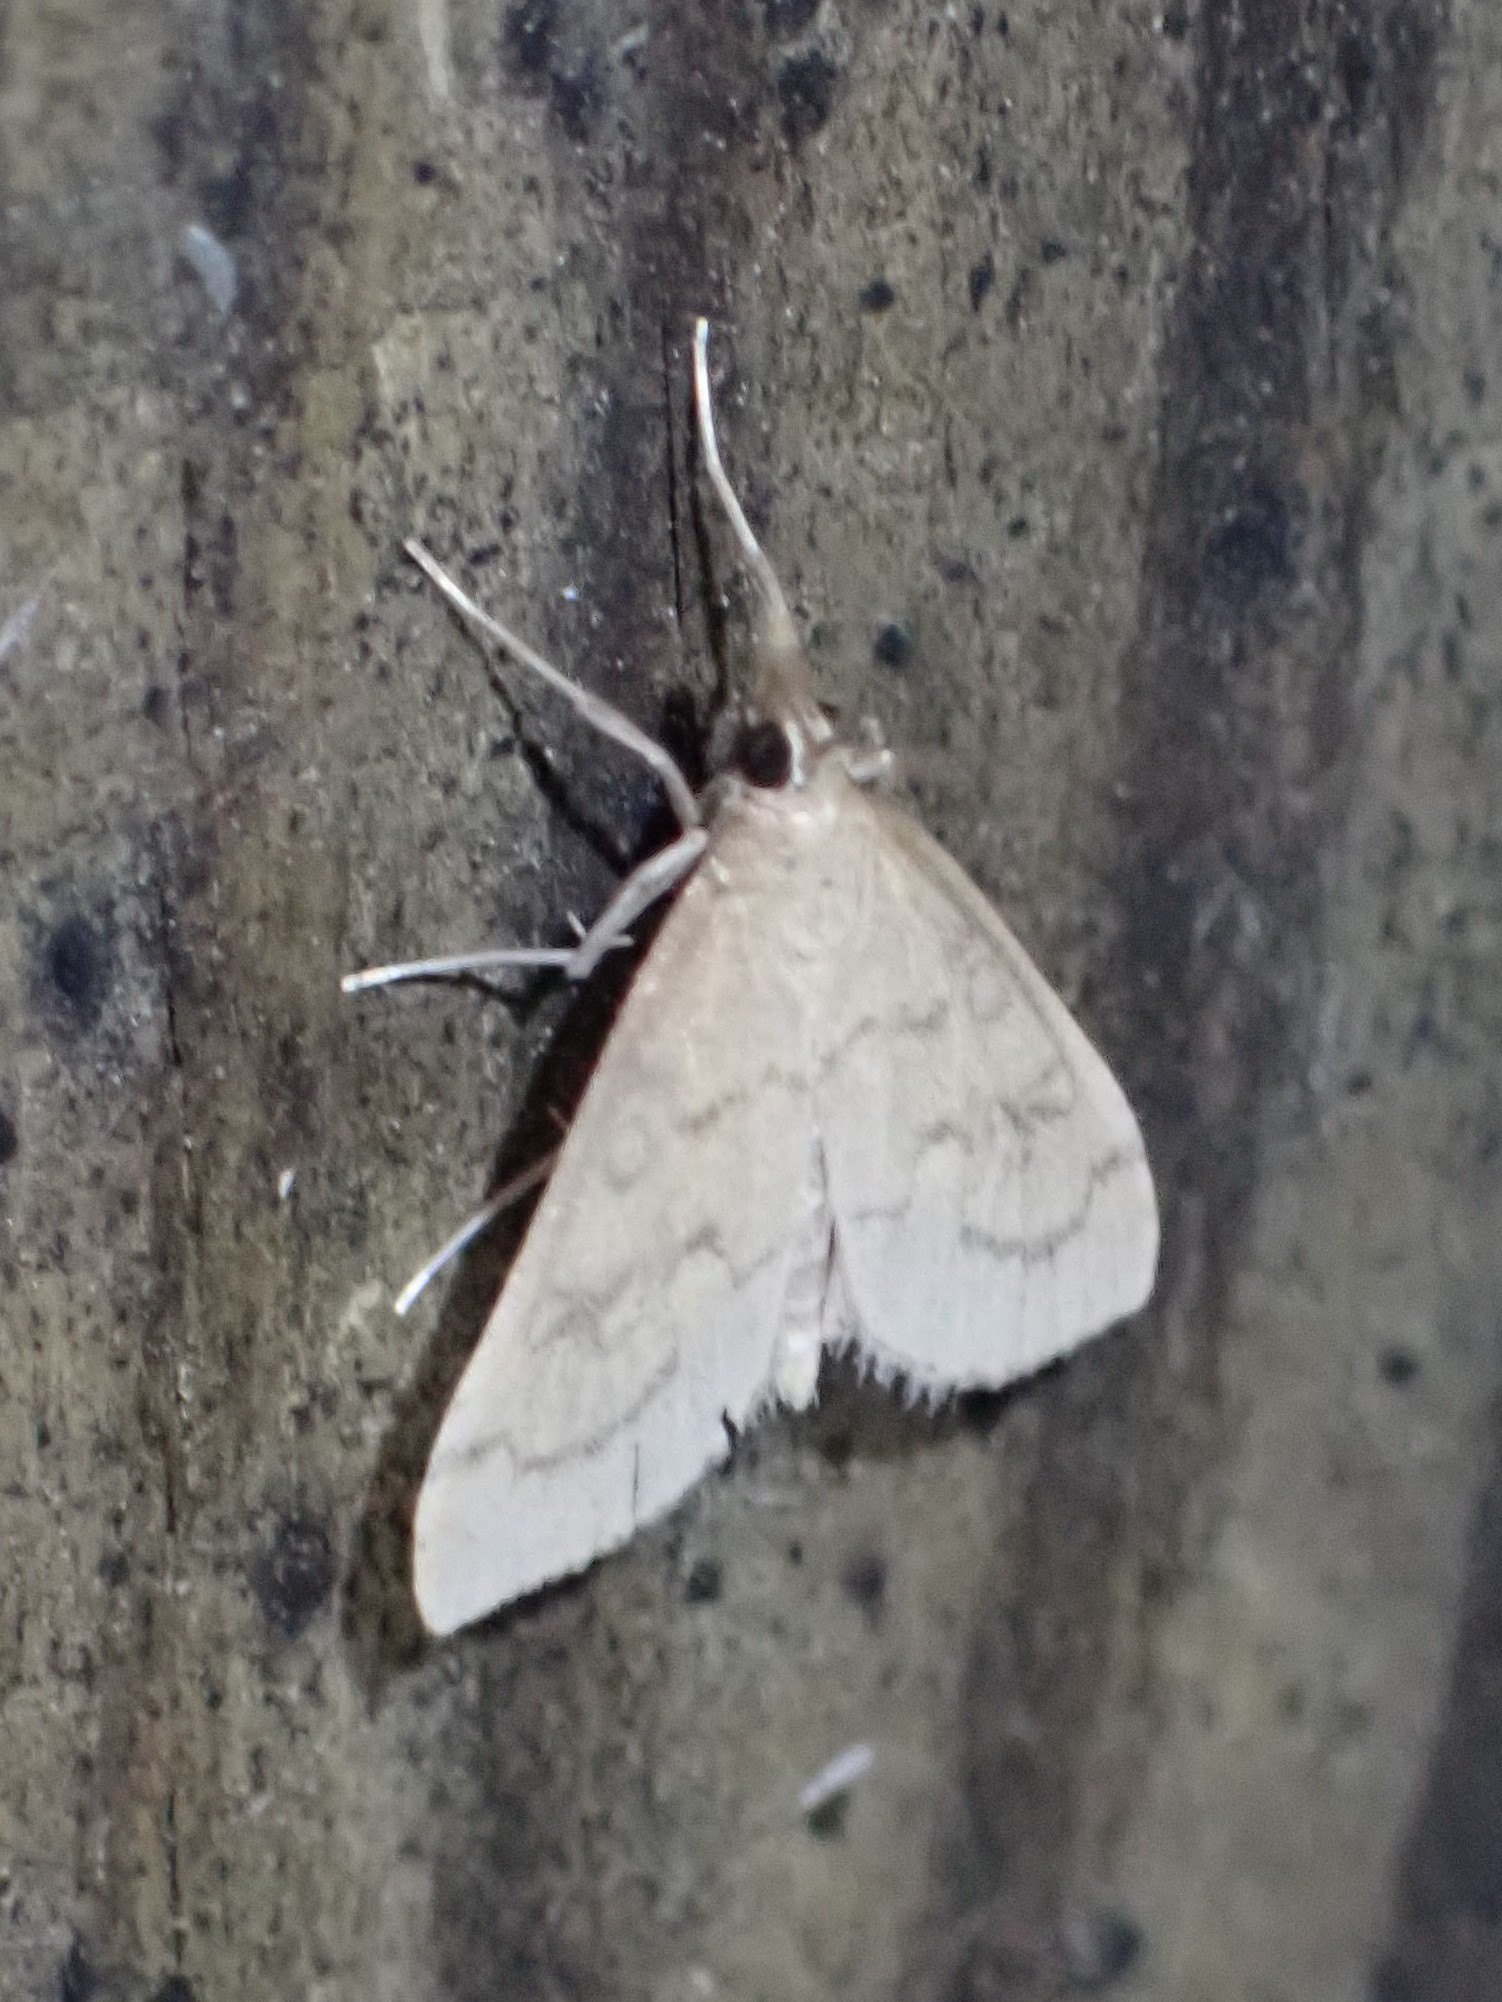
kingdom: Animalia
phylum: Arthropoda
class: Insecta
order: Lepidoptera
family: Crambidae
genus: Udea
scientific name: Udea rubigalis
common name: Celery leaftier moth
